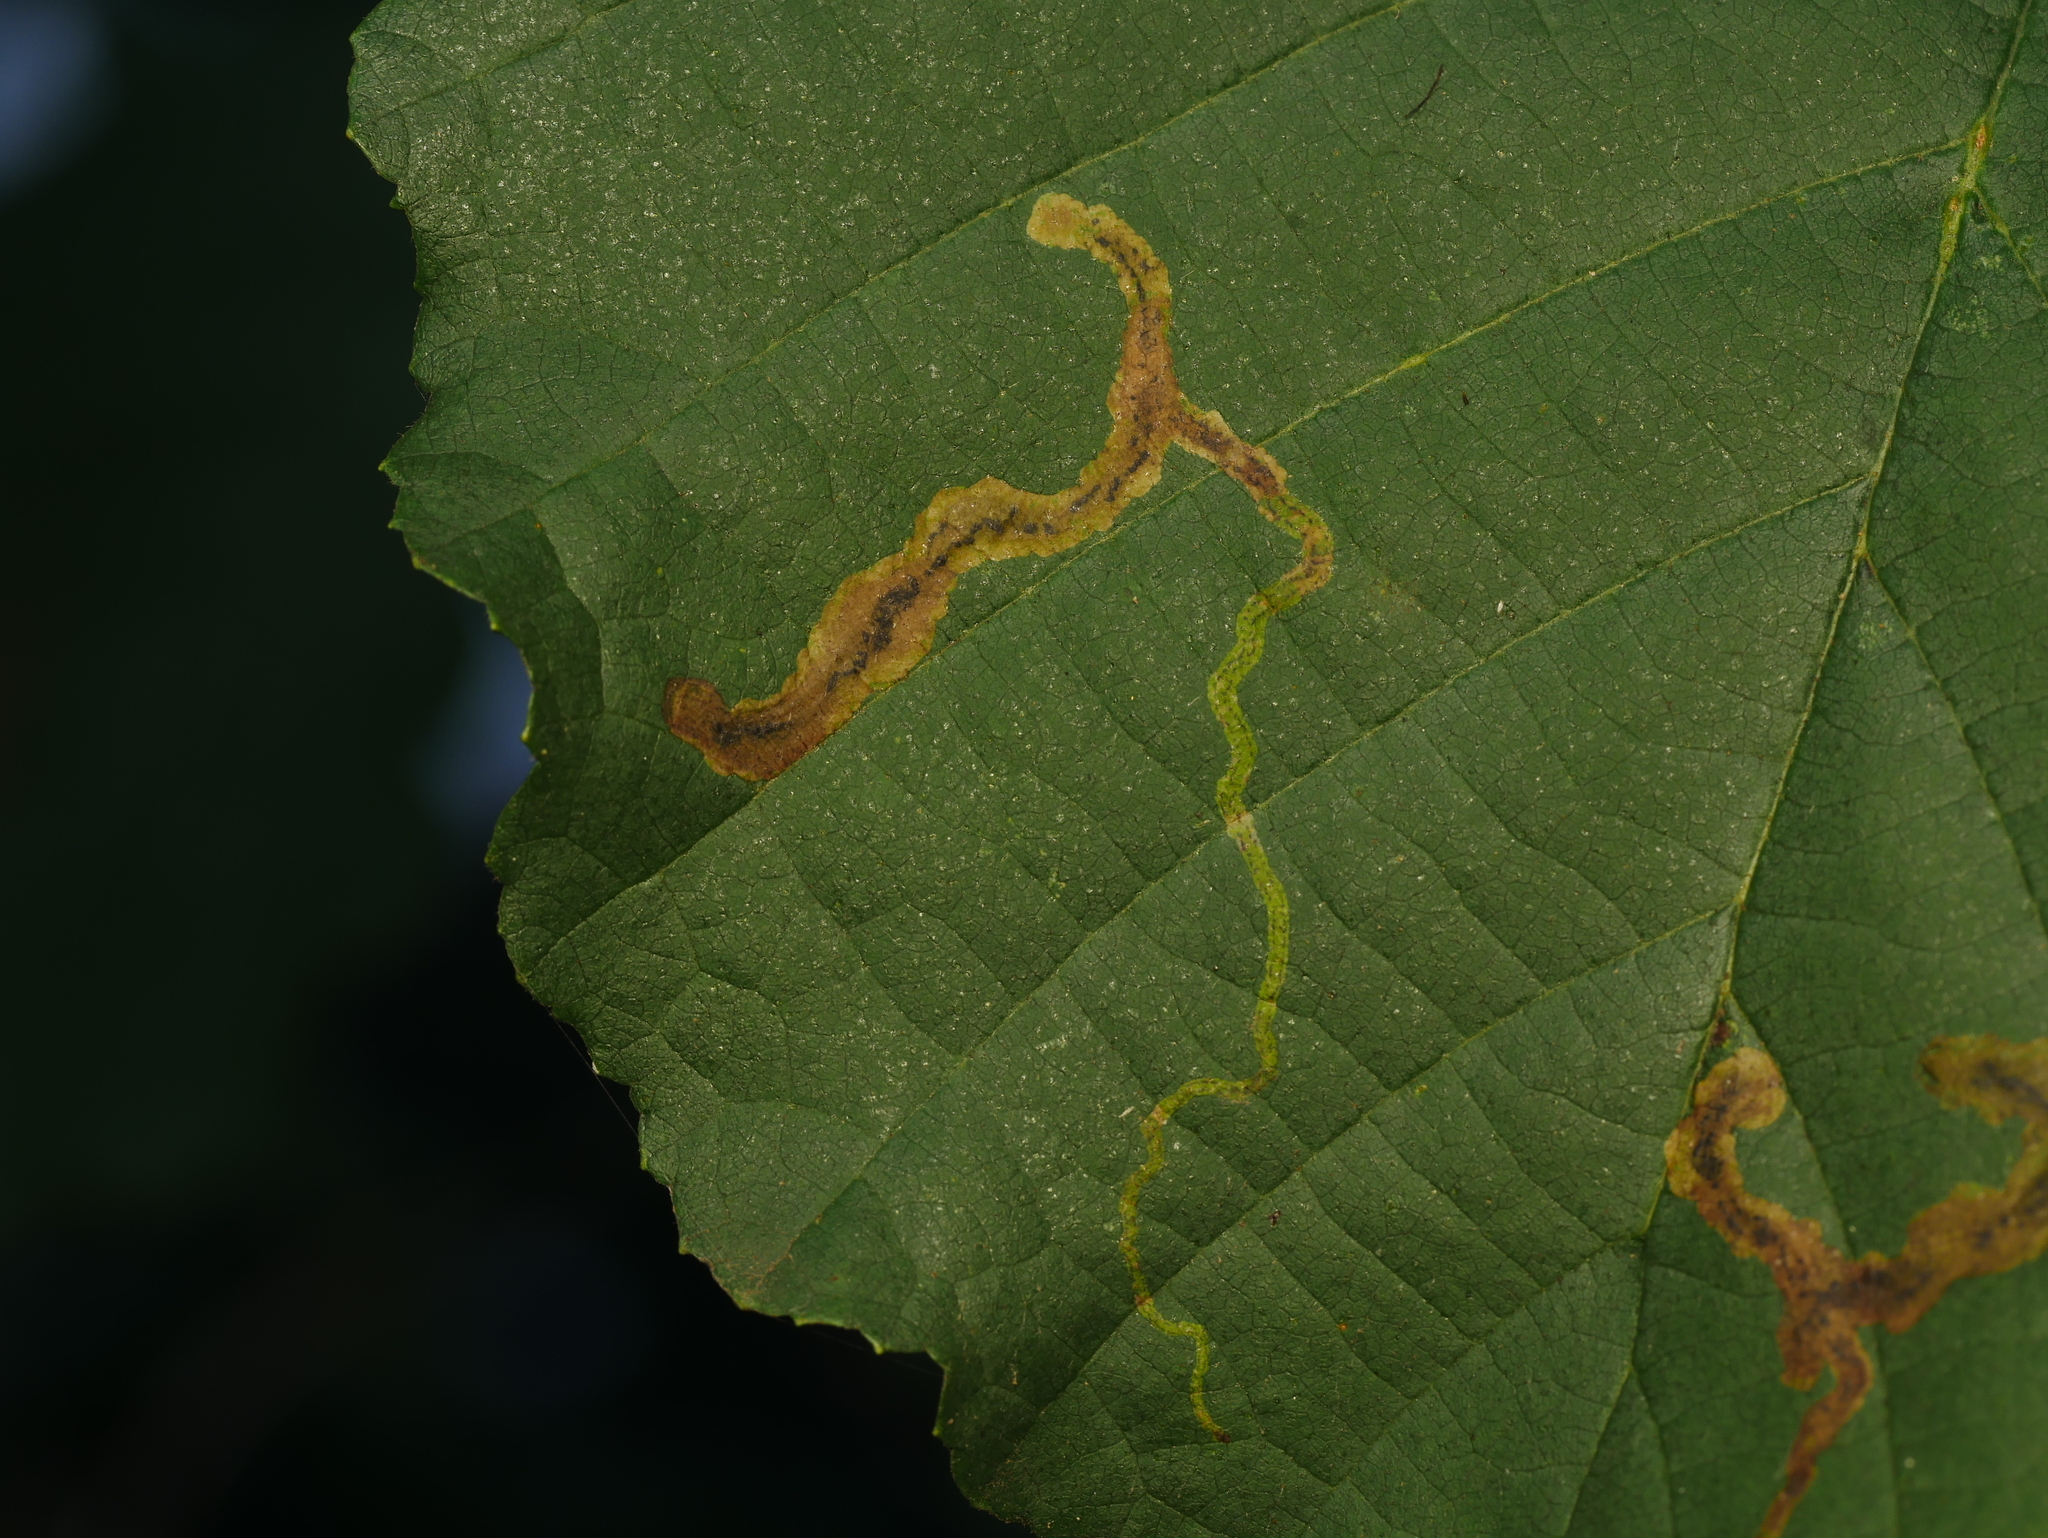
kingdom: Animalia
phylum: Arthropoda
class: Insecta
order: Diptera
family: Agromyzidae
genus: Agromyza
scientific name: Agromyza alnivora
